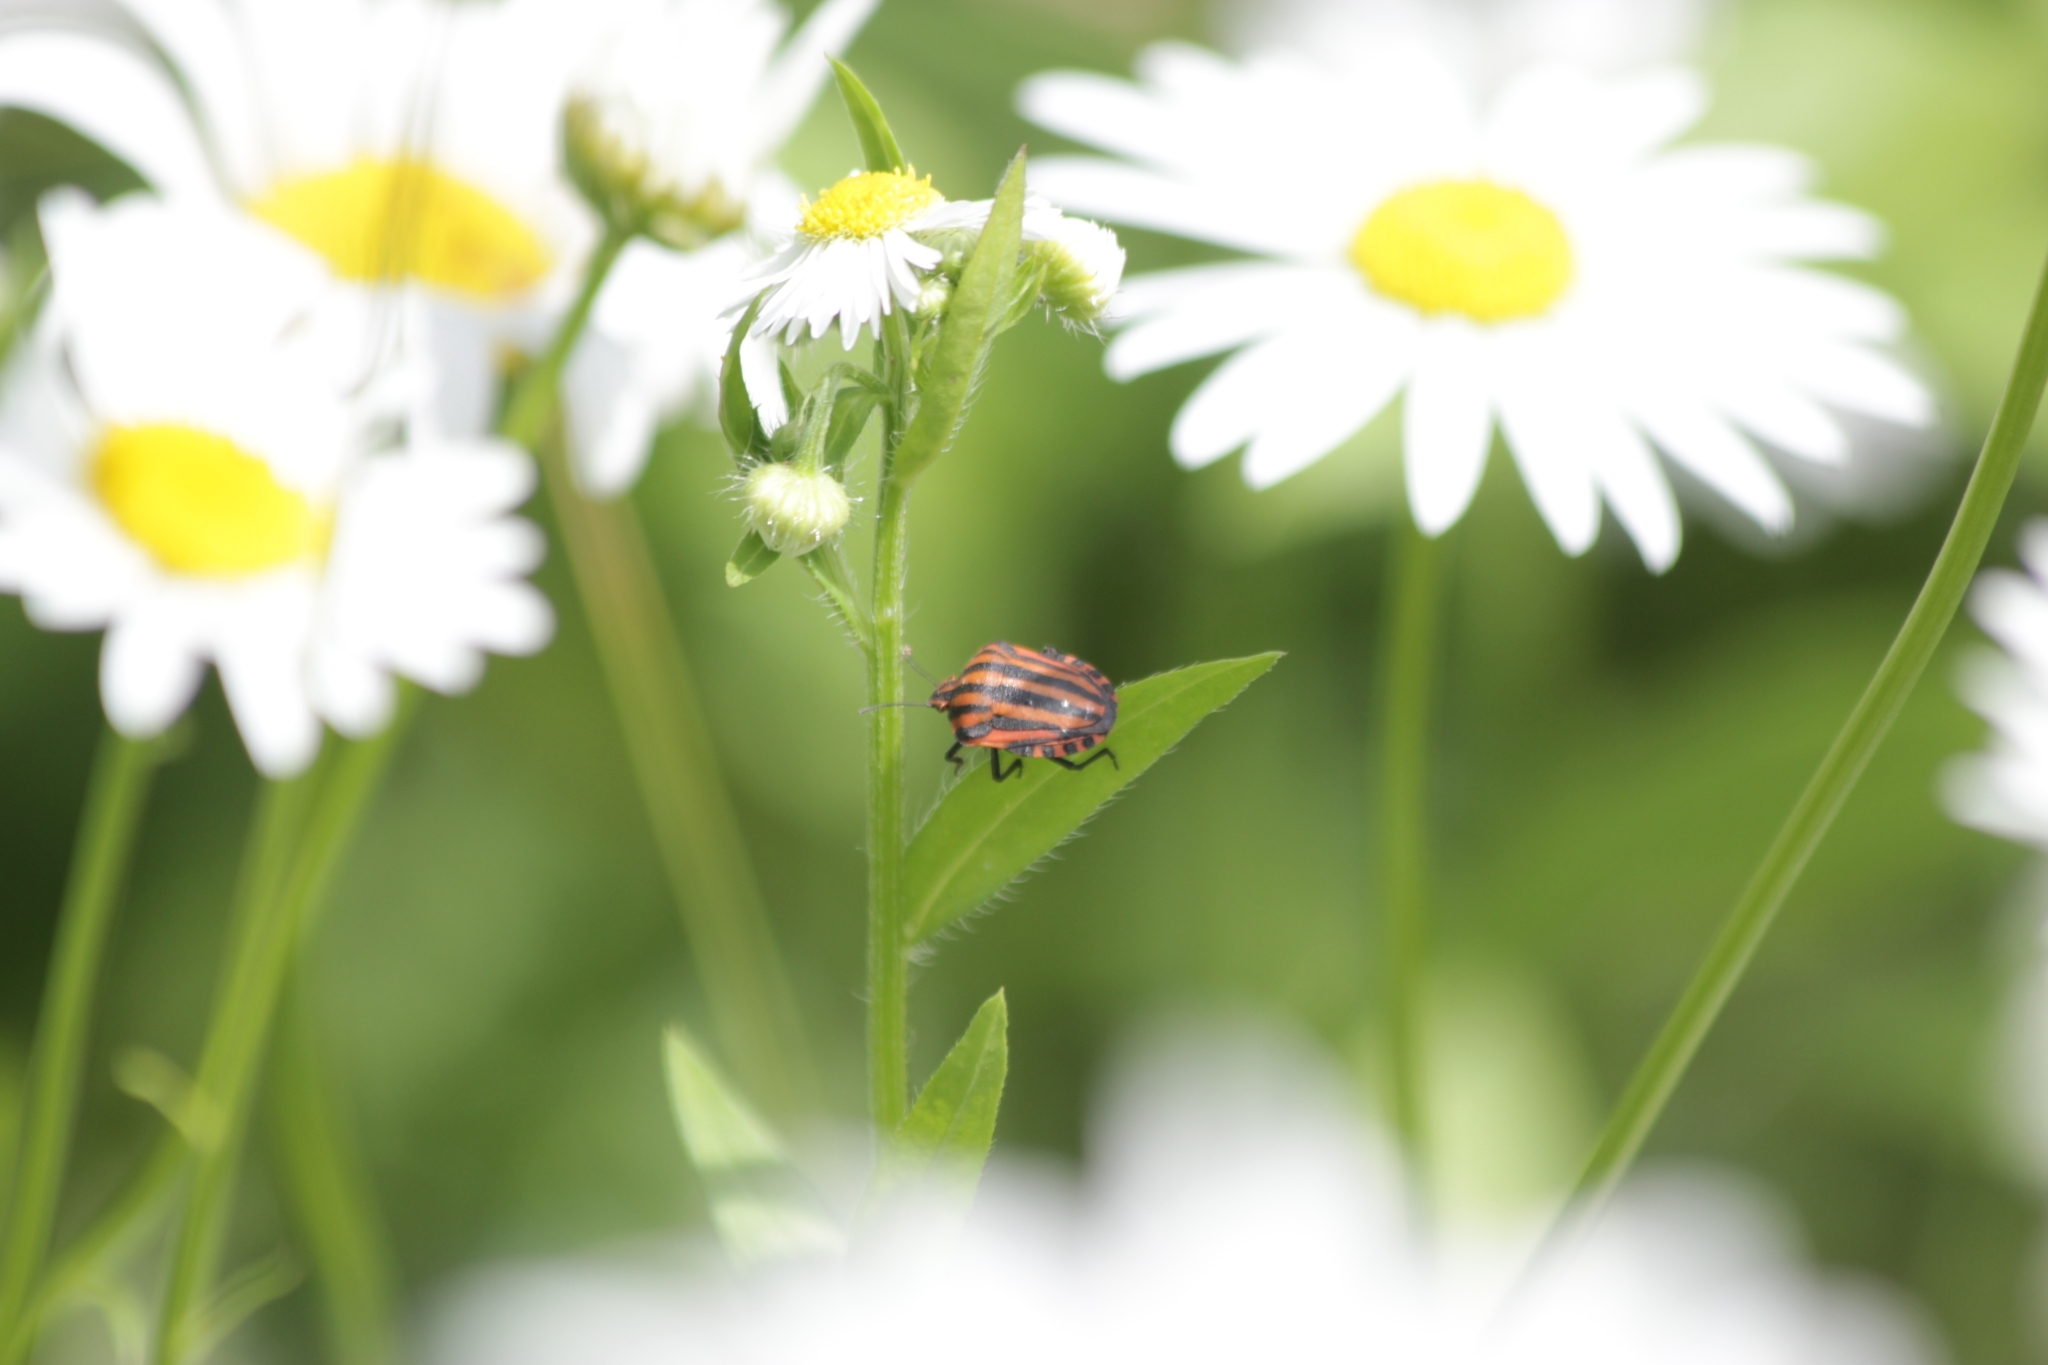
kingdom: Animalia
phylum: Arthropoda
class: Insecta
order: Hemiptera
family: Pentatomidae
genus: Graphosoma
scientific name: Graphosoma italicum
